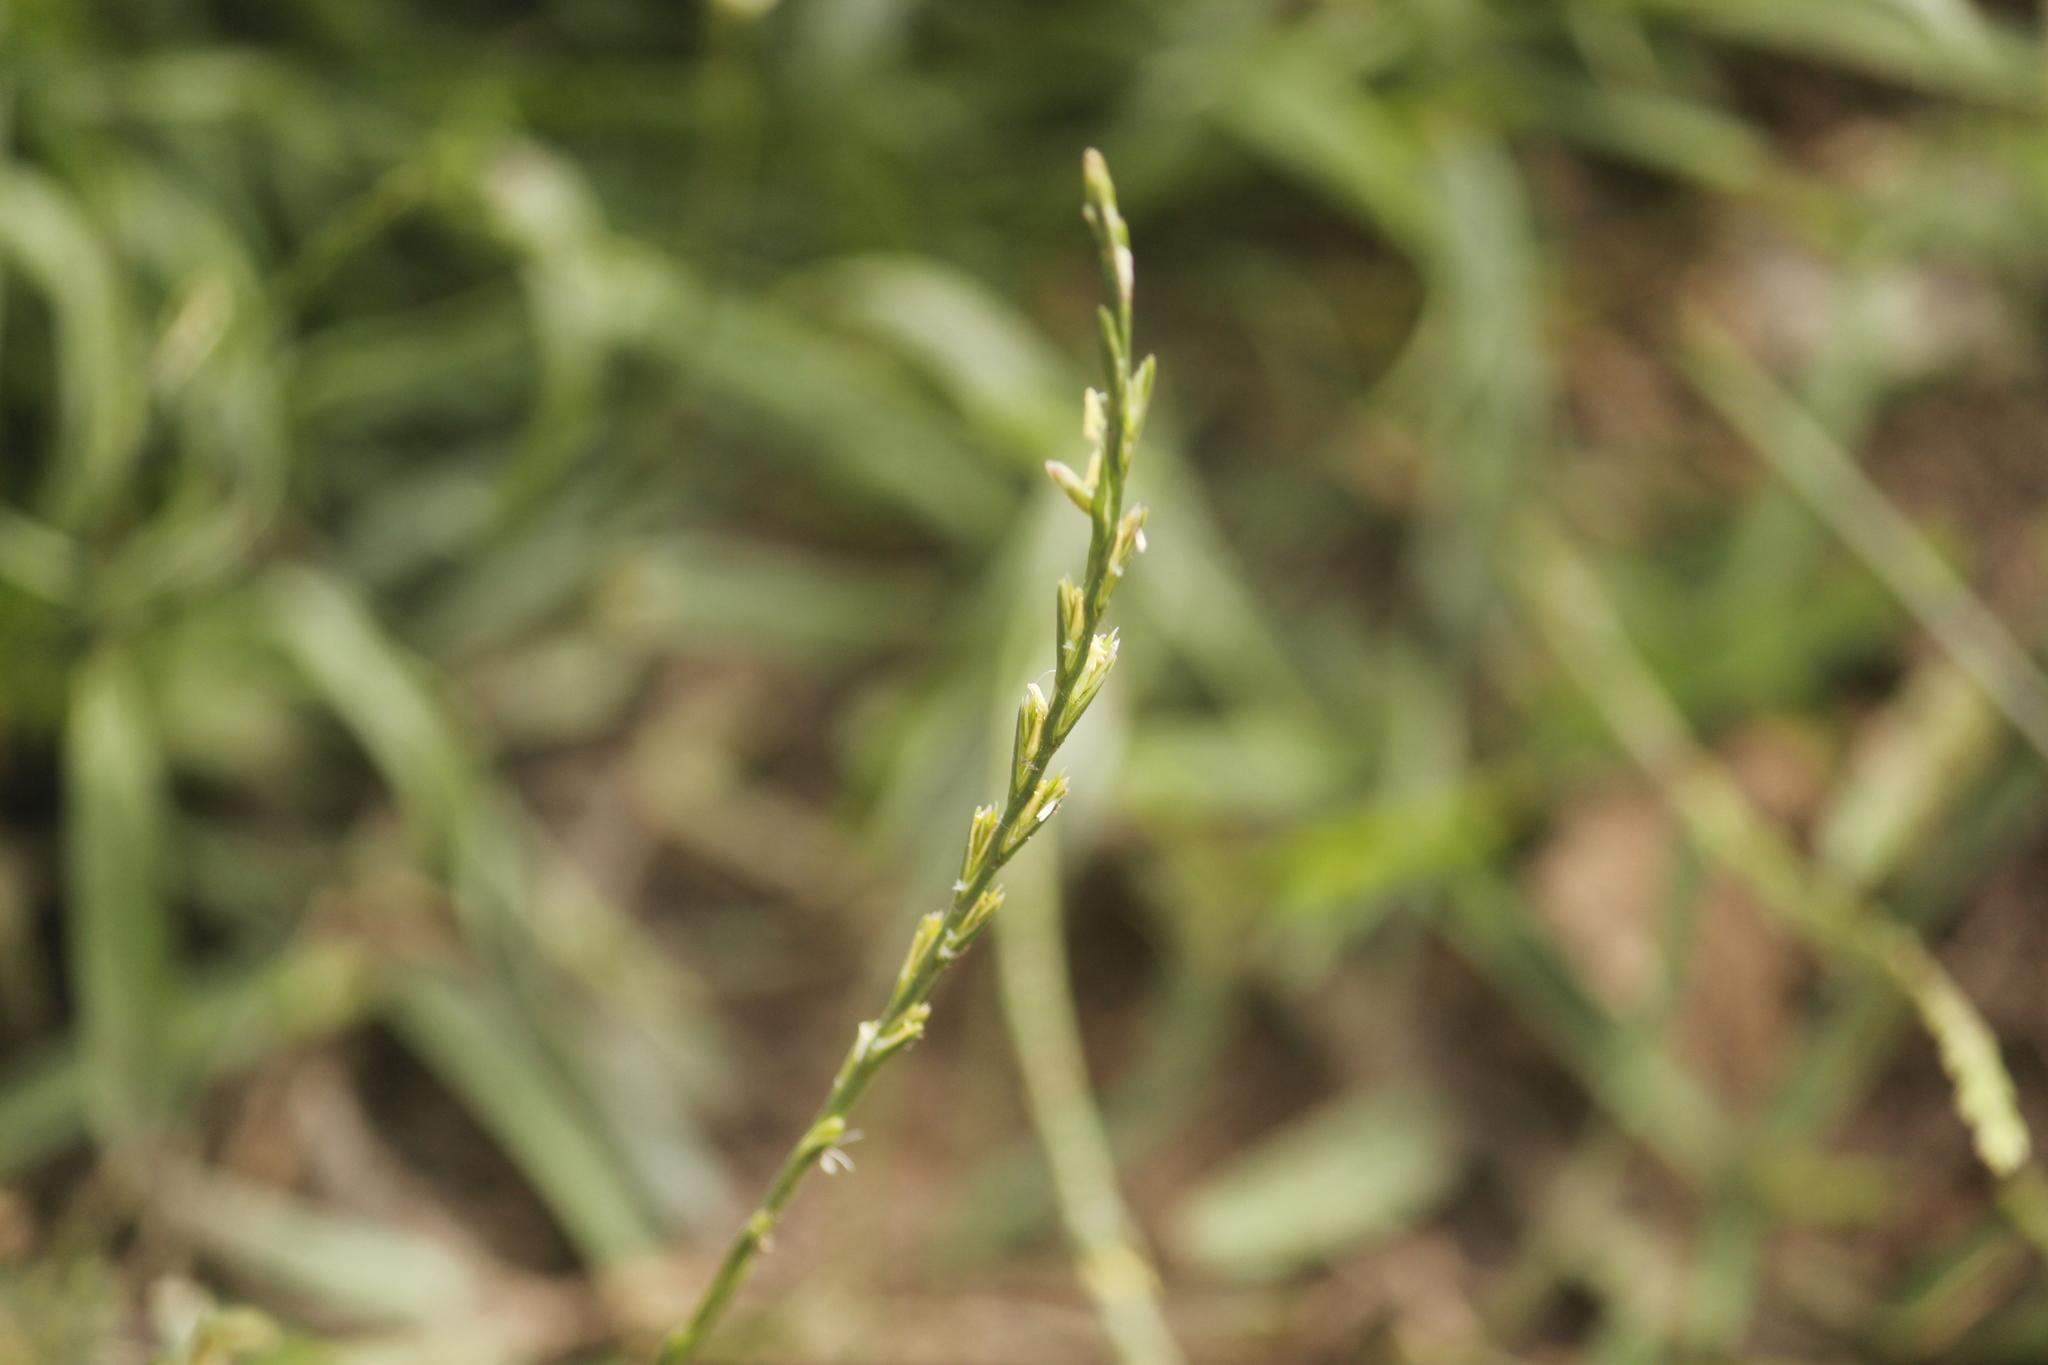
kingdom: Plantae
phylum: Tracheophyta
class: Liliopsida
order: Poales
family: Poaceae
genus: Lolium
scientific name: Lolium multiflorum
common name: Annual ryegrass
